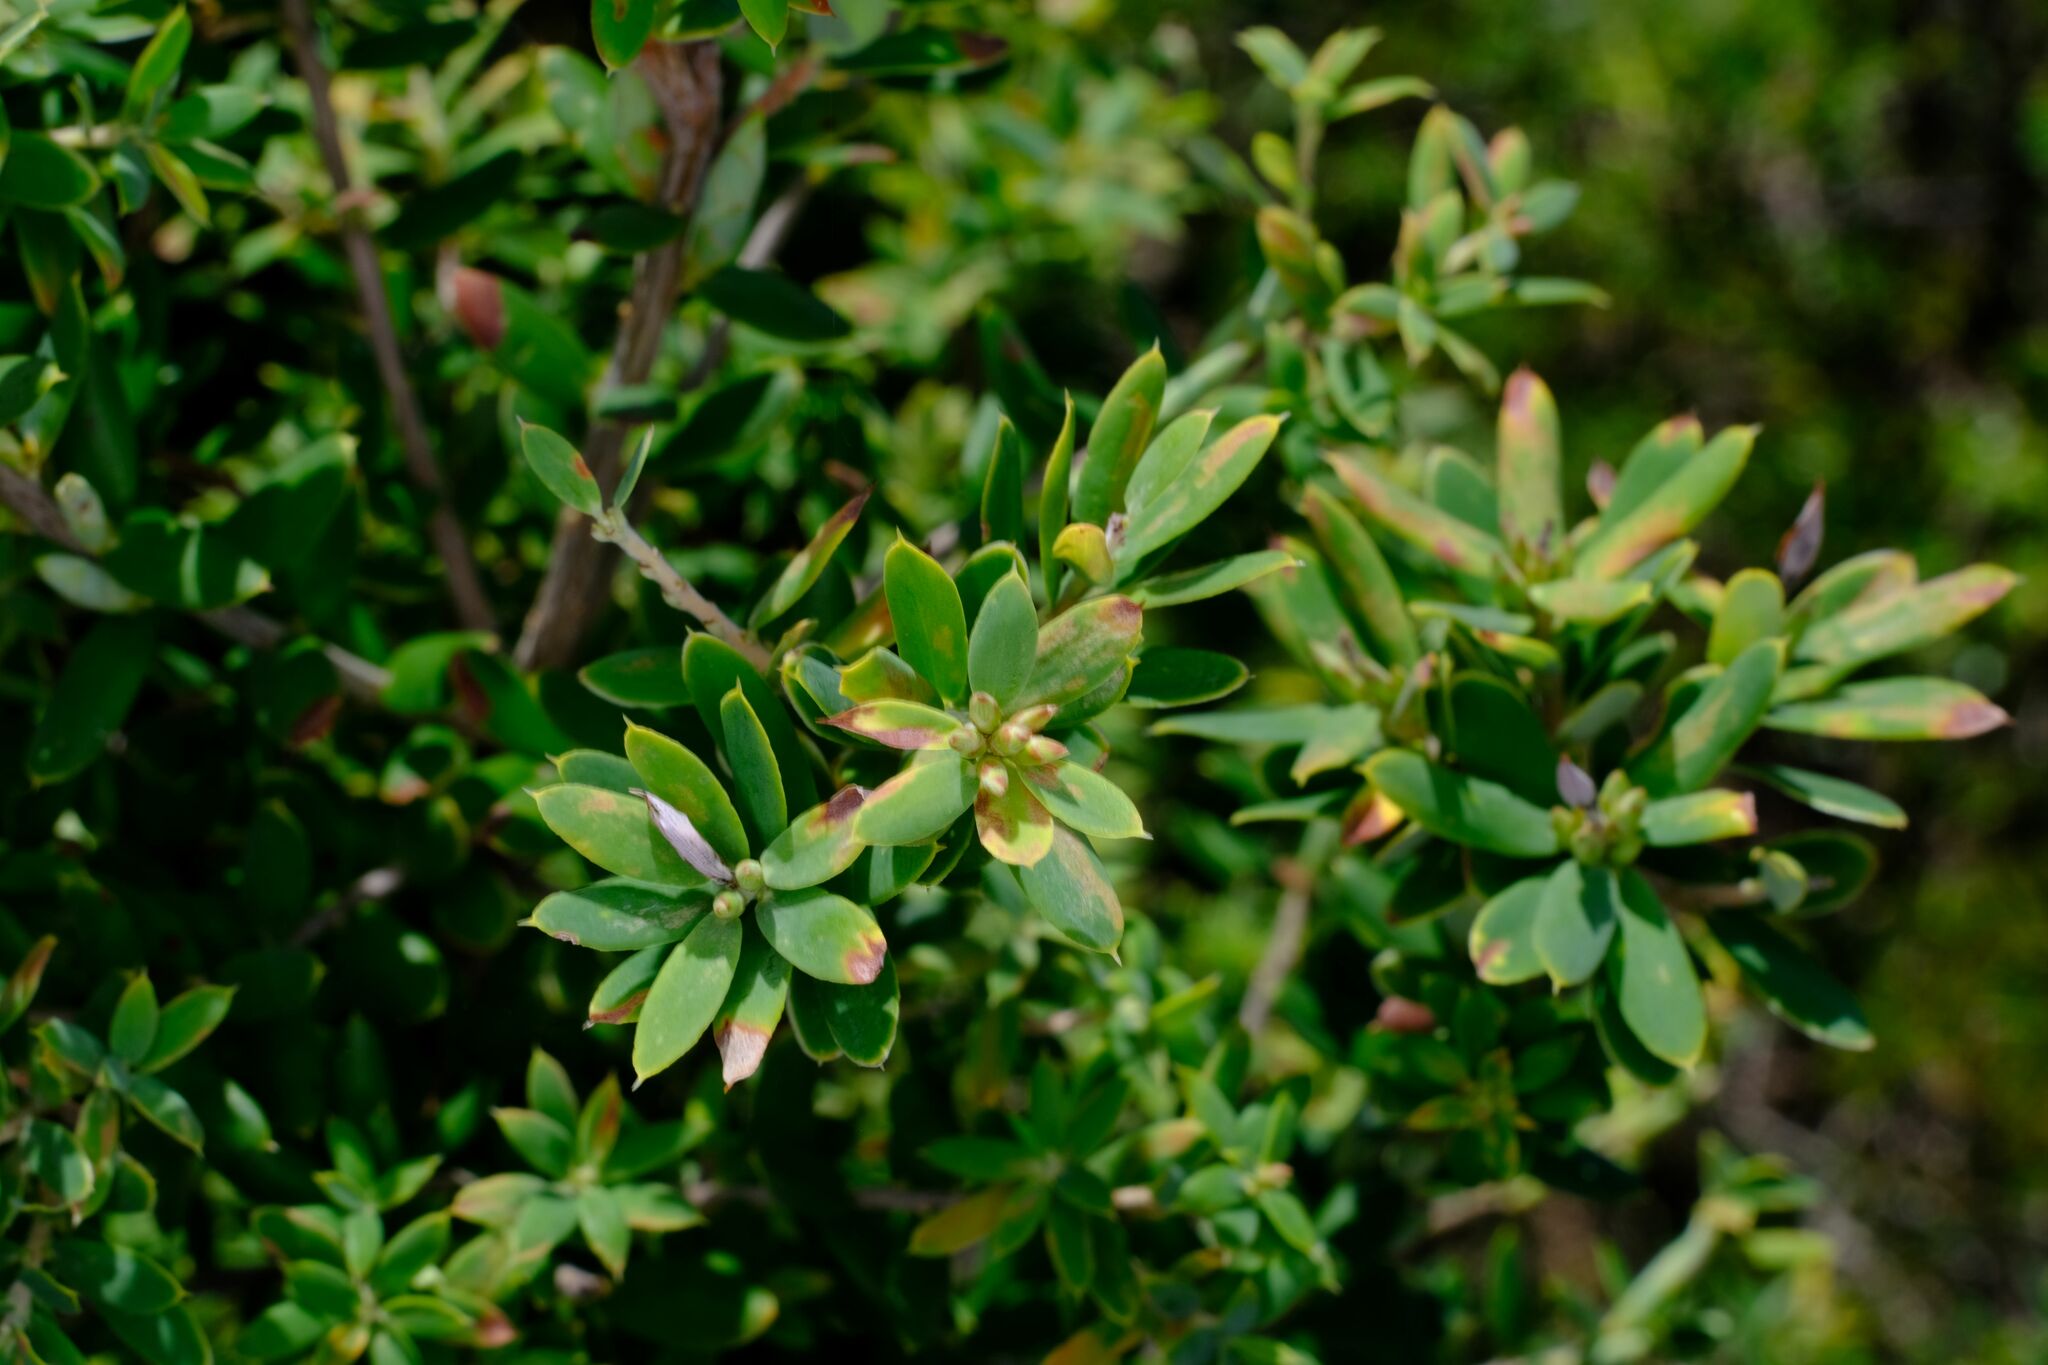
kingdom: Plantae
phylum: Tracheophyta
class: Magnoliopsida
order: Ericales
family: Ericaceae
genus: Monotoca
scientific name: Monotoca elliptica
